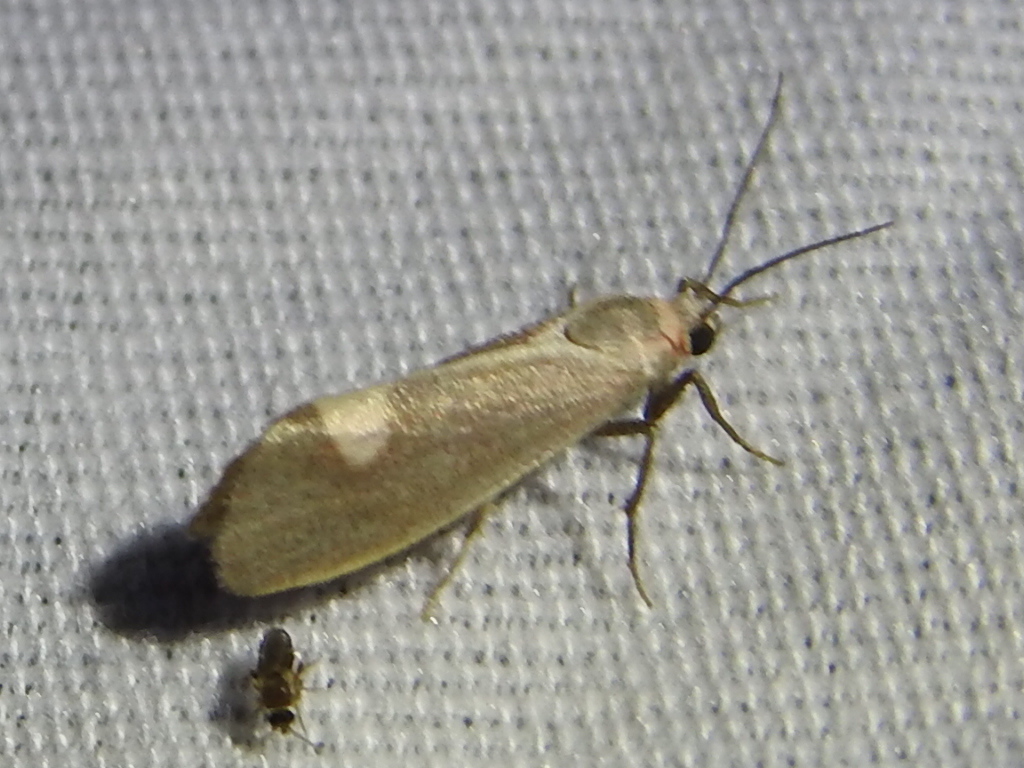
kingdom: Animalia
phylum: Arthropoda
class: Insecta
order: Lepidoptera
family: Erebidae
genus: Cisthene
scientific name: Cisthene plumbea
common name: Lead colored lichen moth
